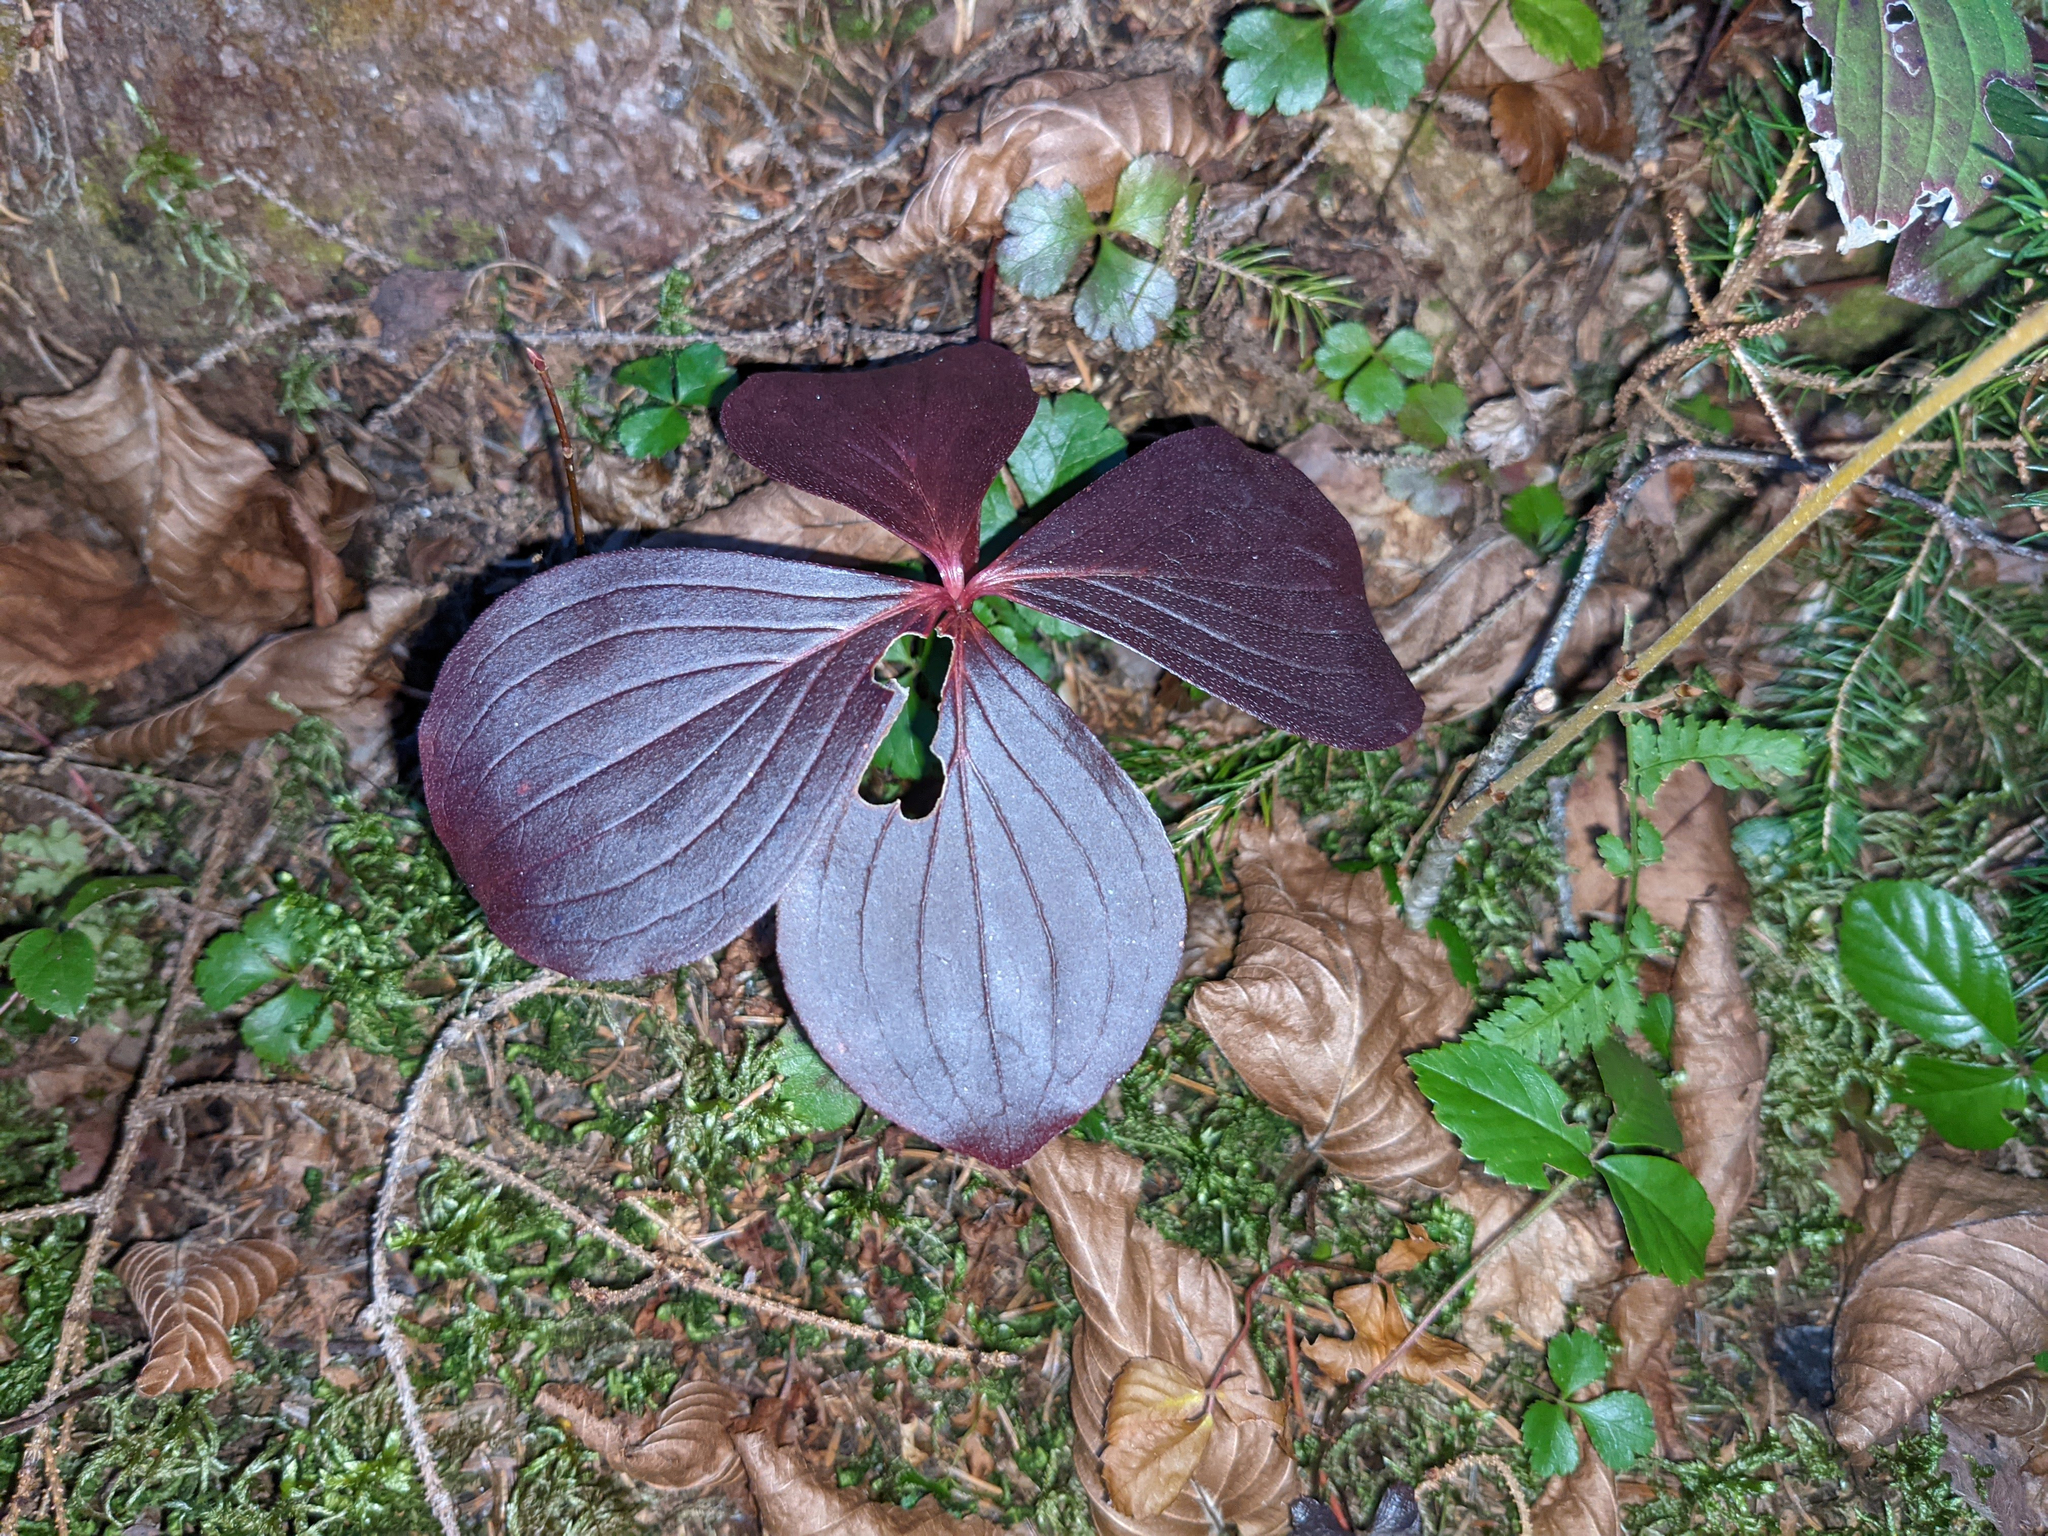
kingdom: Plantae
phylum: Tracheophyta
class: Magnoliopsida
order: Ranunculales
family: Ranunculaceae
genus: Coptis
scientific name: Coptis trifolia
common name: Canker-root
